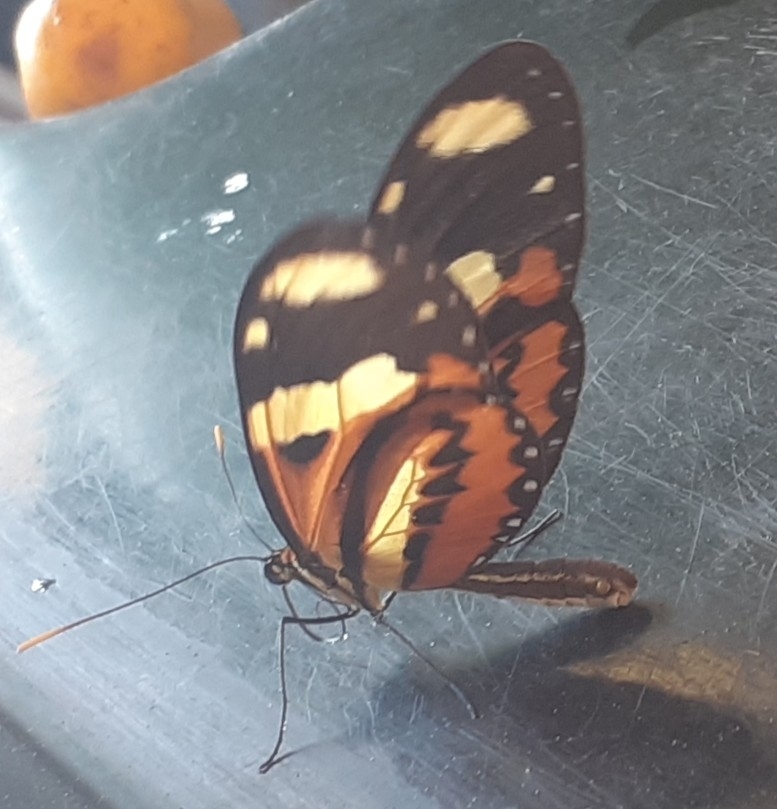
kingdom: Animalia
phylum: Arthropoda
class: Insecta
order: Lepidoptera
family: Nymphalidae
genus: Mechanitis
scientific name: Mechanitis lysimnia
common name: Lysimnia tigerwing
